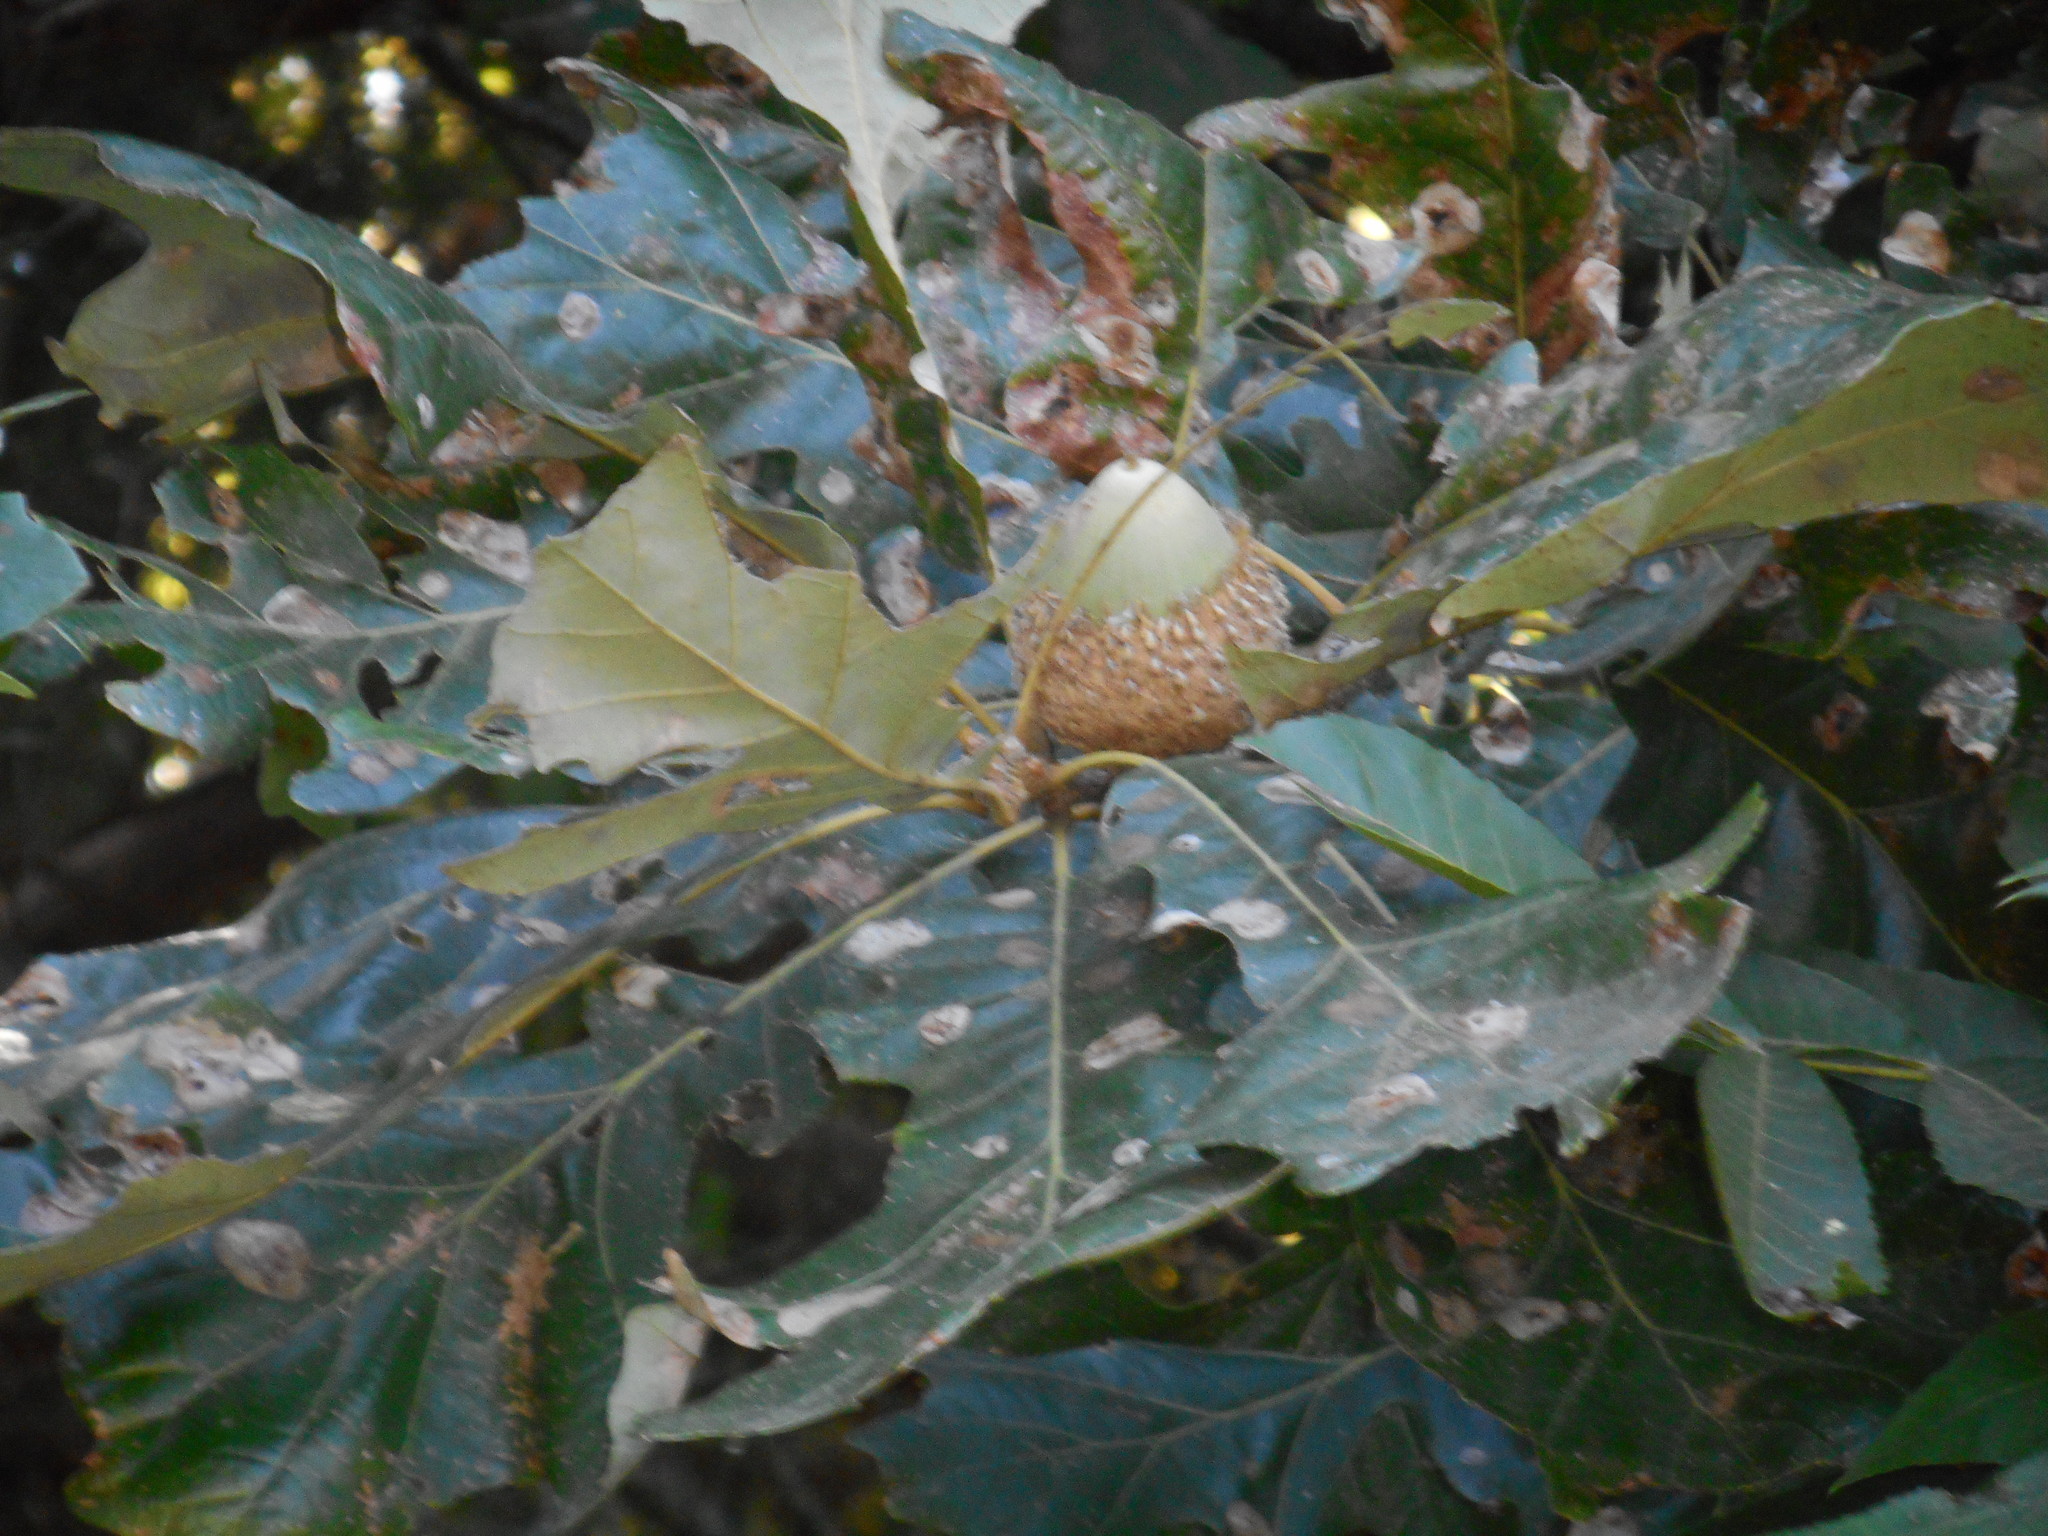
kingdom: Plantae
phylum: Tracheophyta
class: Magnoliopsida
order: Fagales
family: Fagaceae
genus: Quercus
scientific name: Quercus macrocarpa
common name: Bur oak
